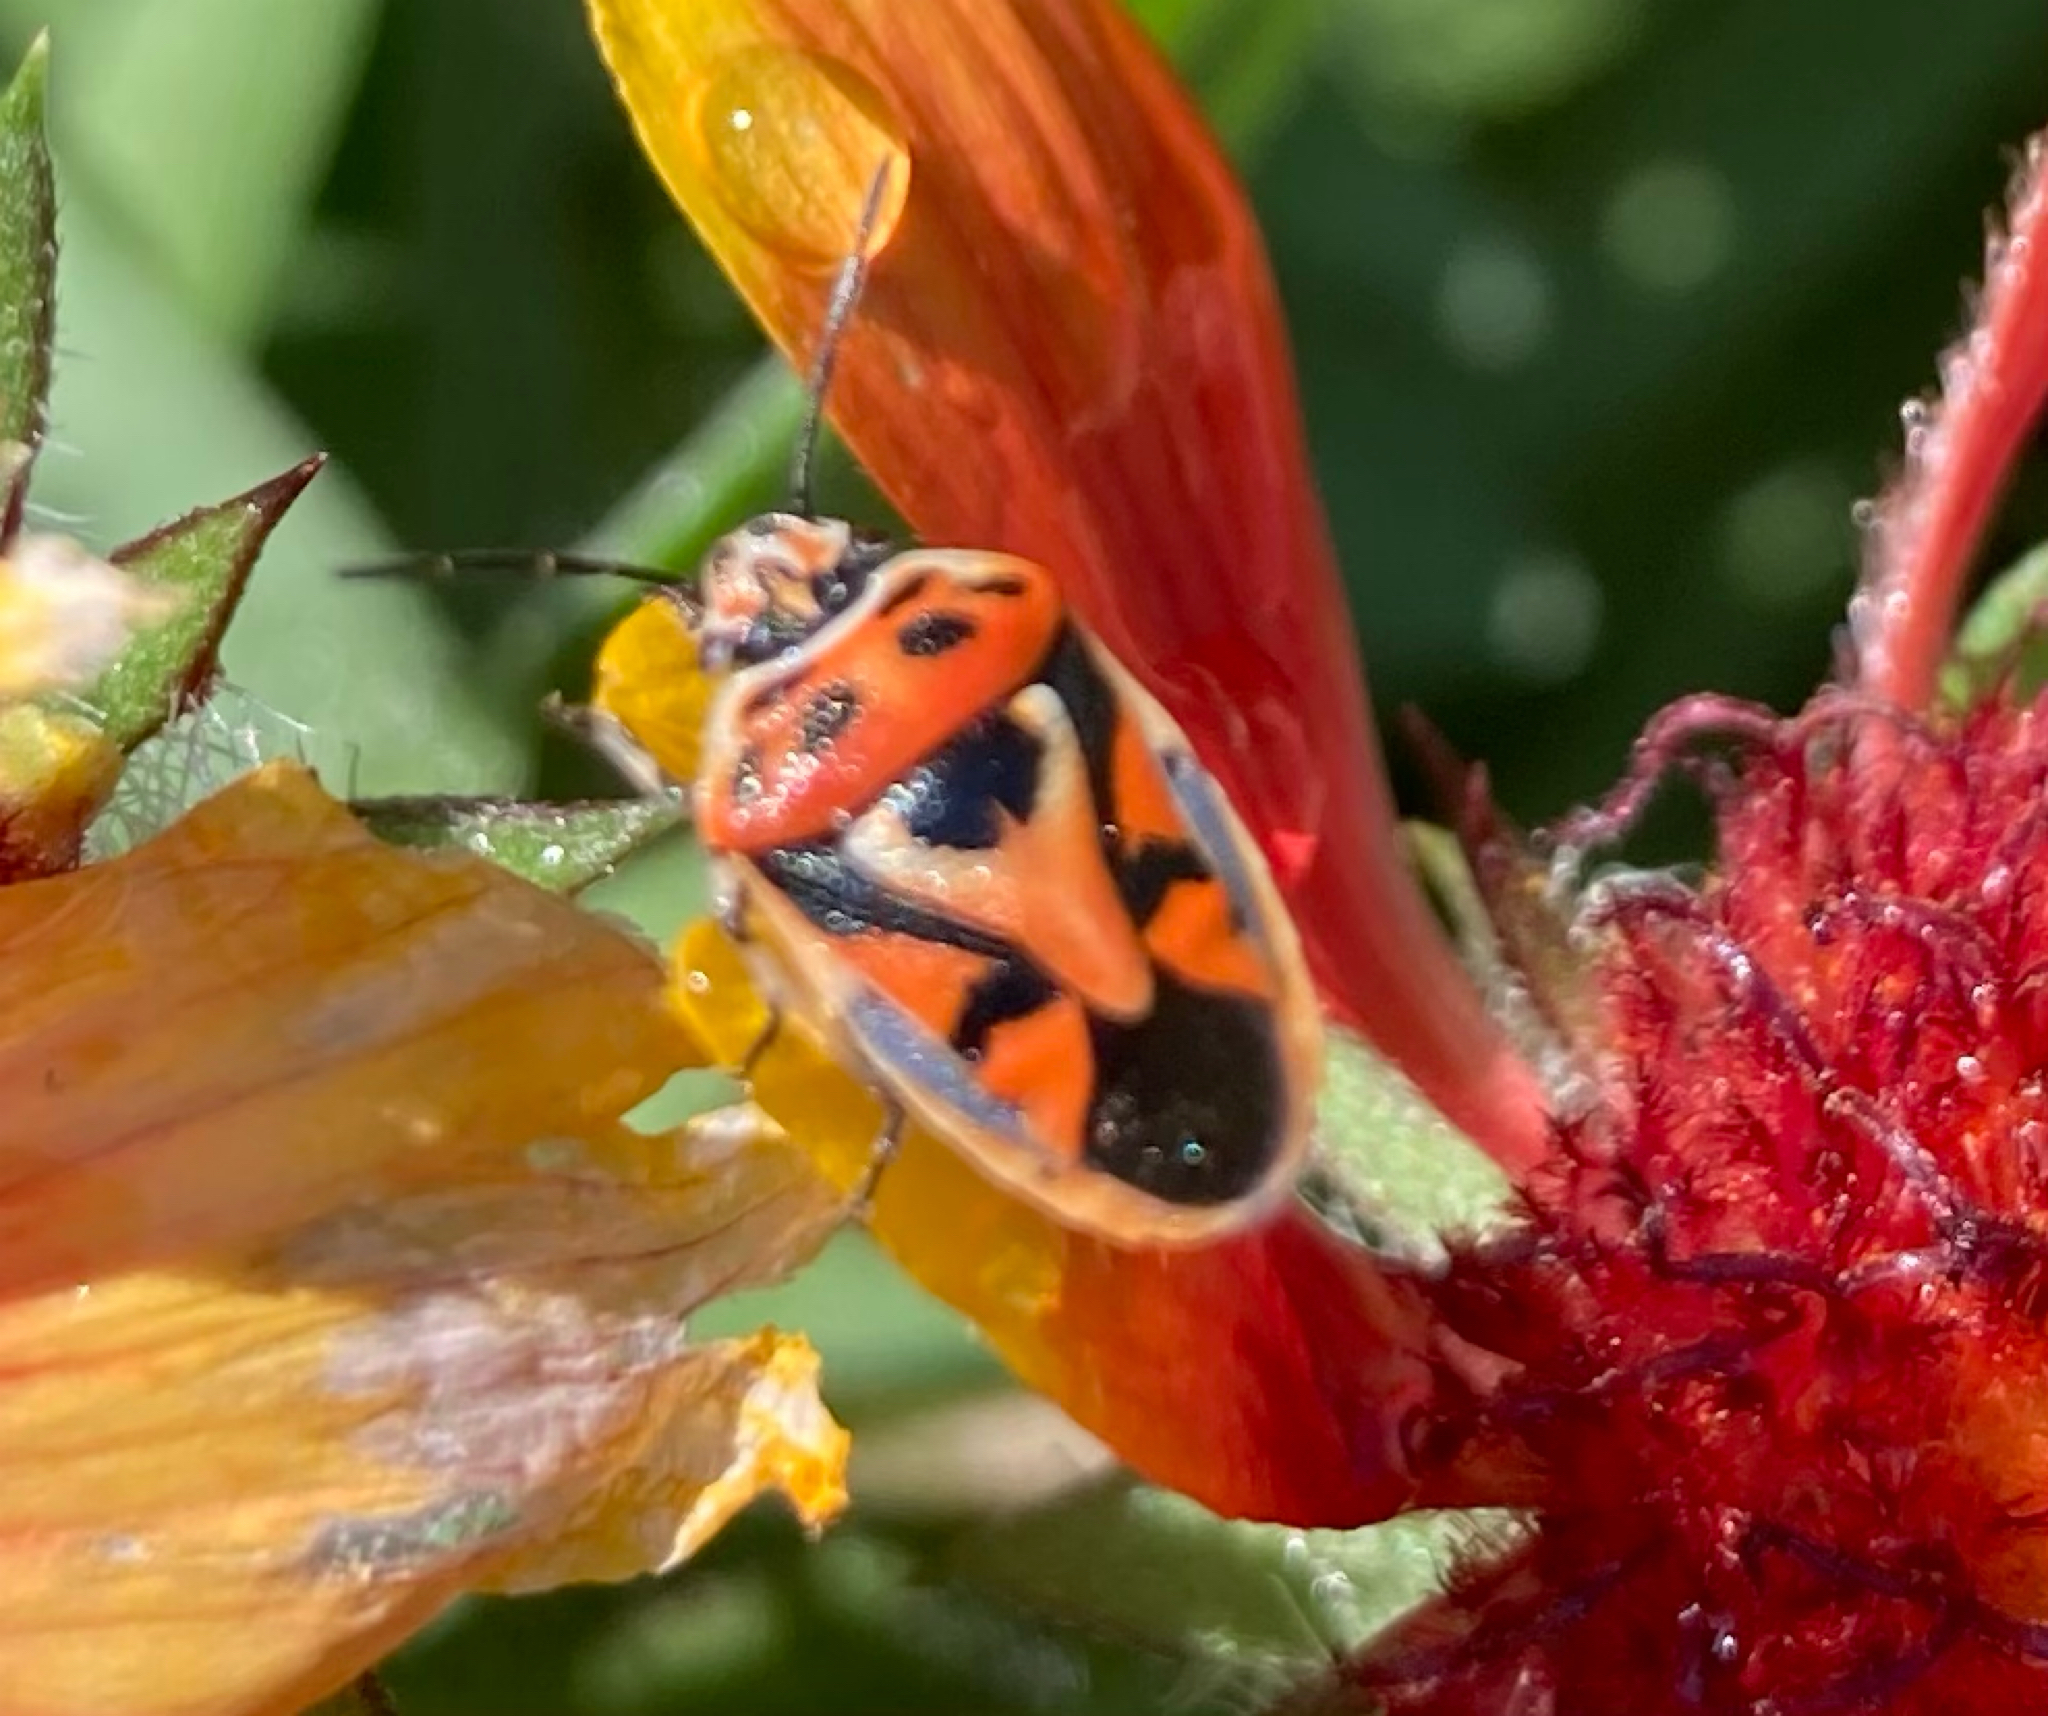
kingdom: Animalia
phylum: Arthropoda
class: Insecta
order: Hemiptera
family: Pentatomidae
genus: Eurydema
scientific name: Eurydema ornata
